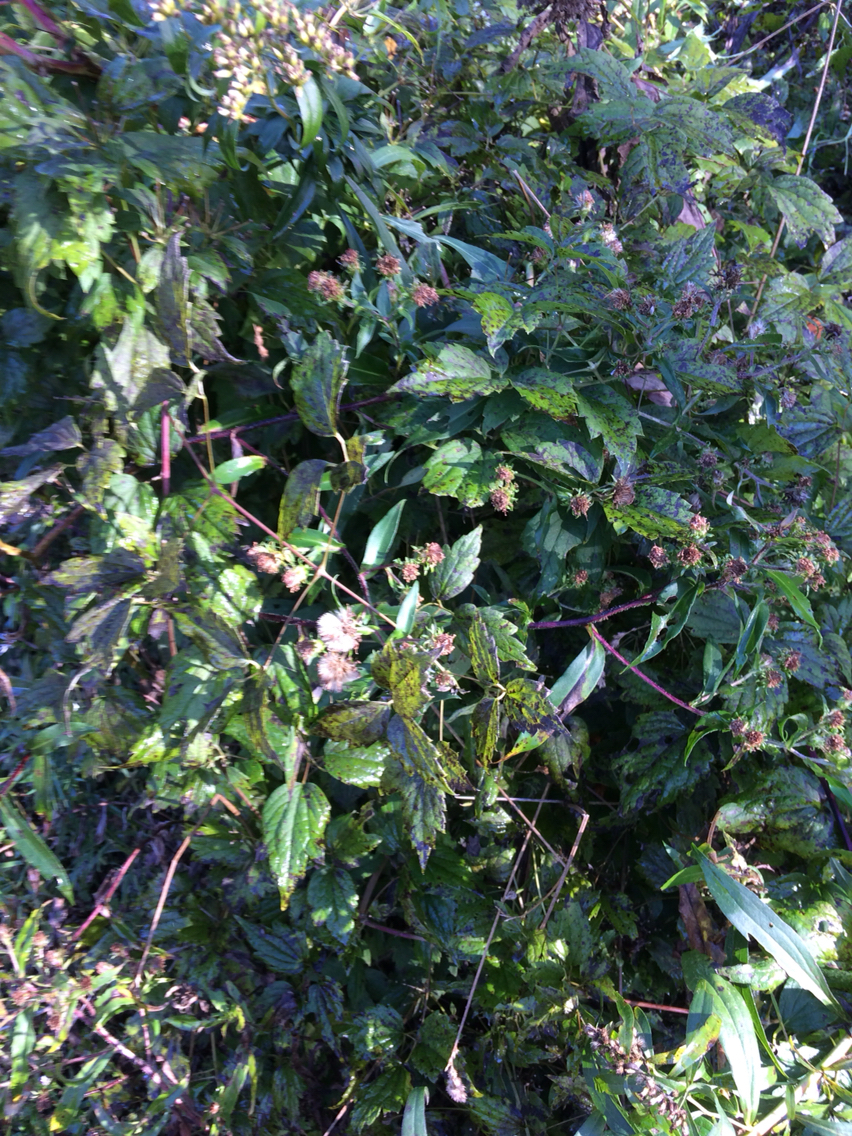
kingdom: Plantae
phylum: Tracheophyta
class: Magnoliopsida
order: Ranunculales
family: Ranunculaceae
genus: Clematis
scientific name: Clematis virginiana
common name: Virgin's-bower
